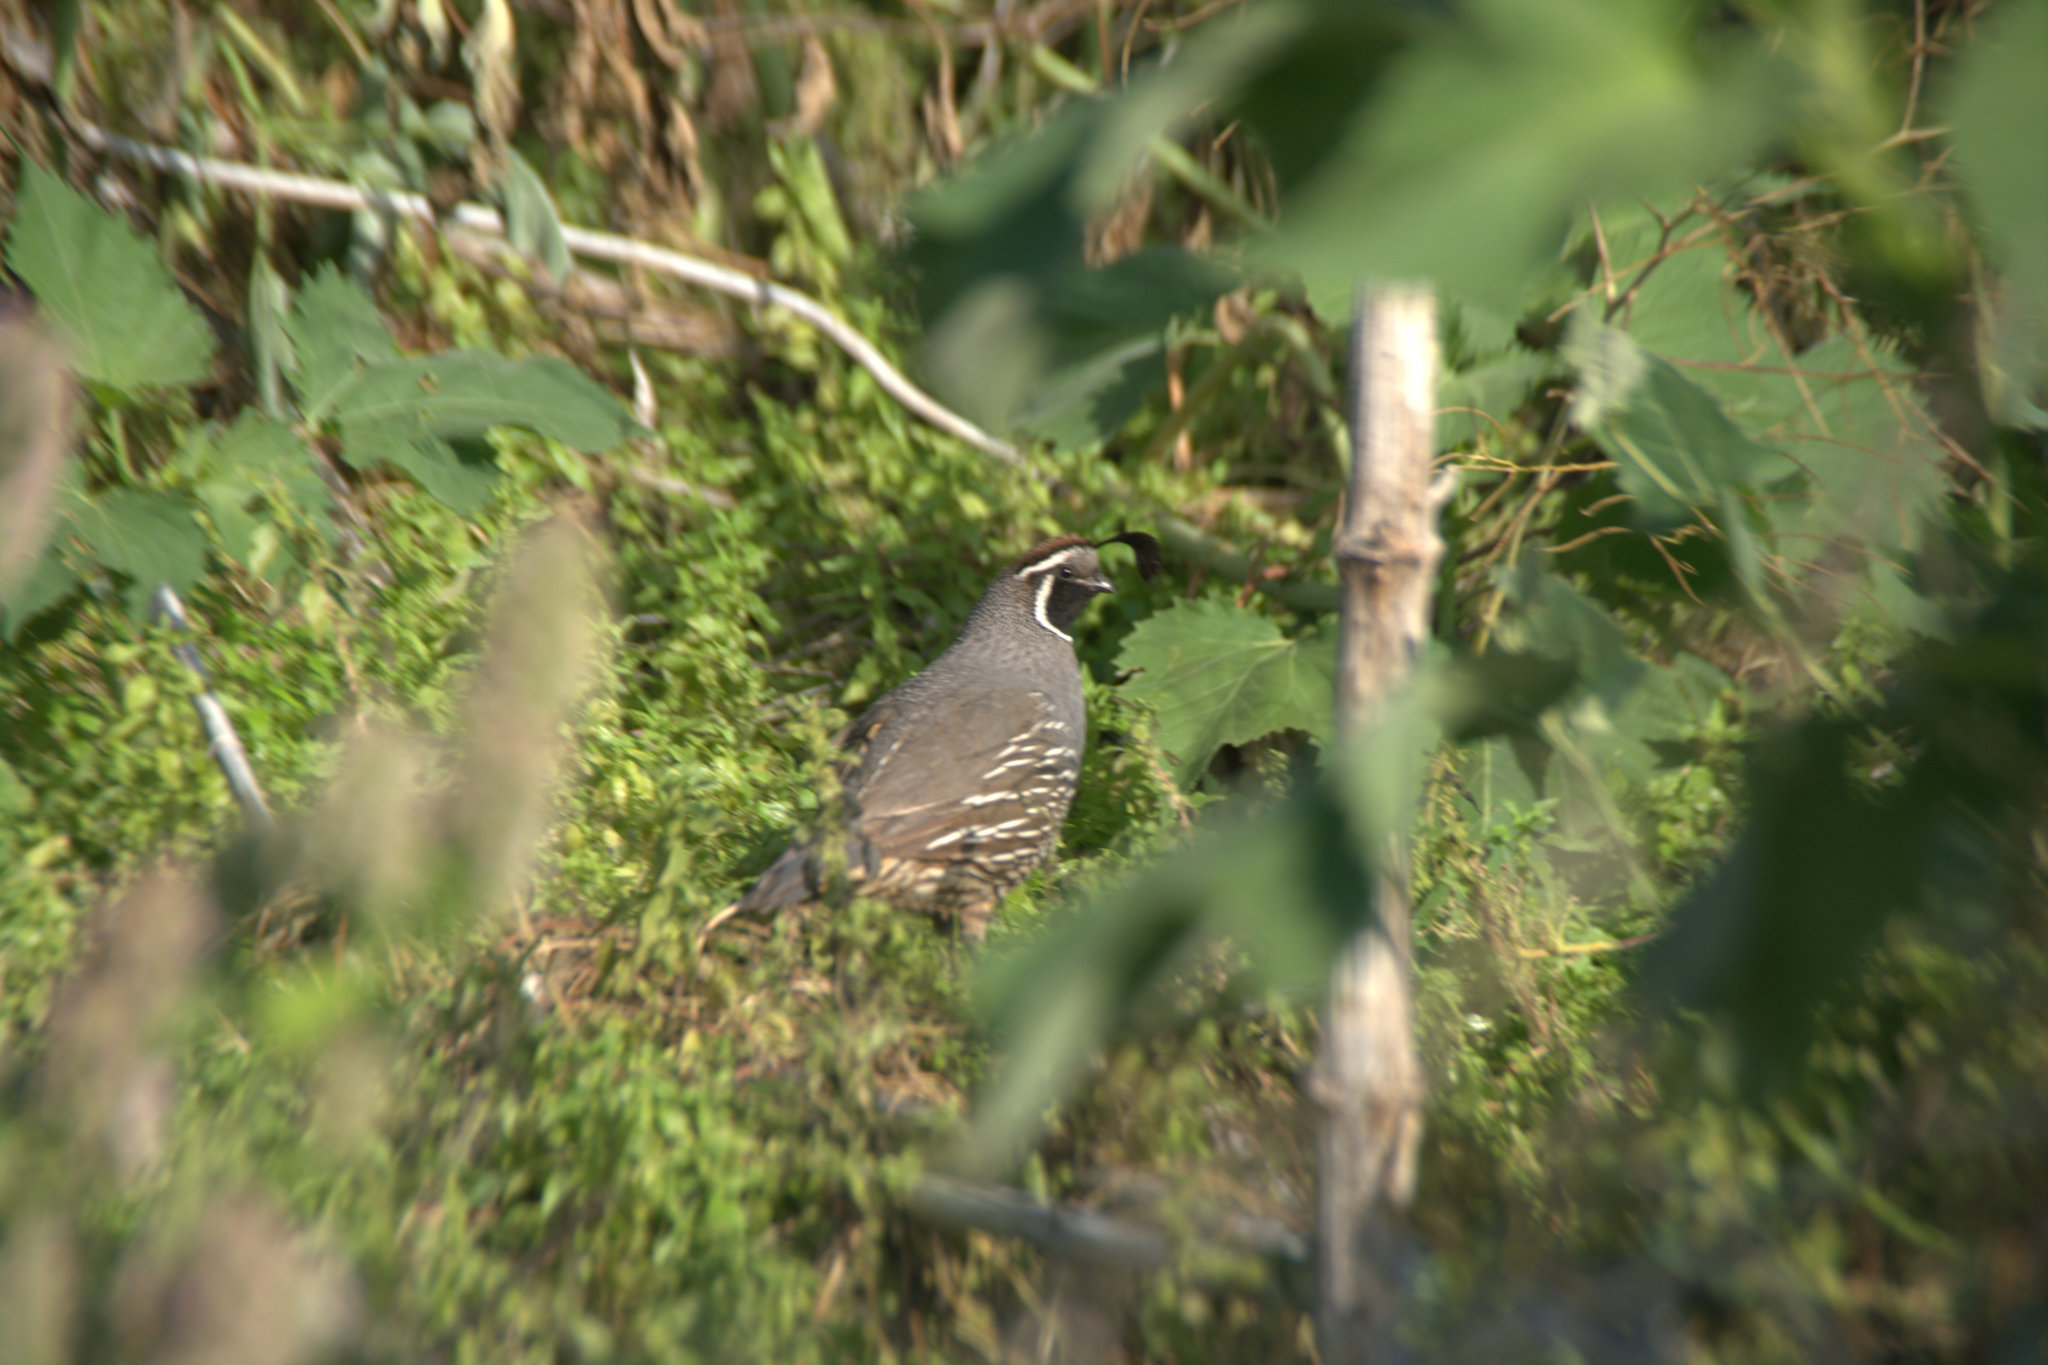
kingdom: Animalia
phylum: Chordata
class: Aves
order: Galliformes
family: Odontophoridae
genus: Callipepla
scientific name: Callipepla californica
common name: California quail
